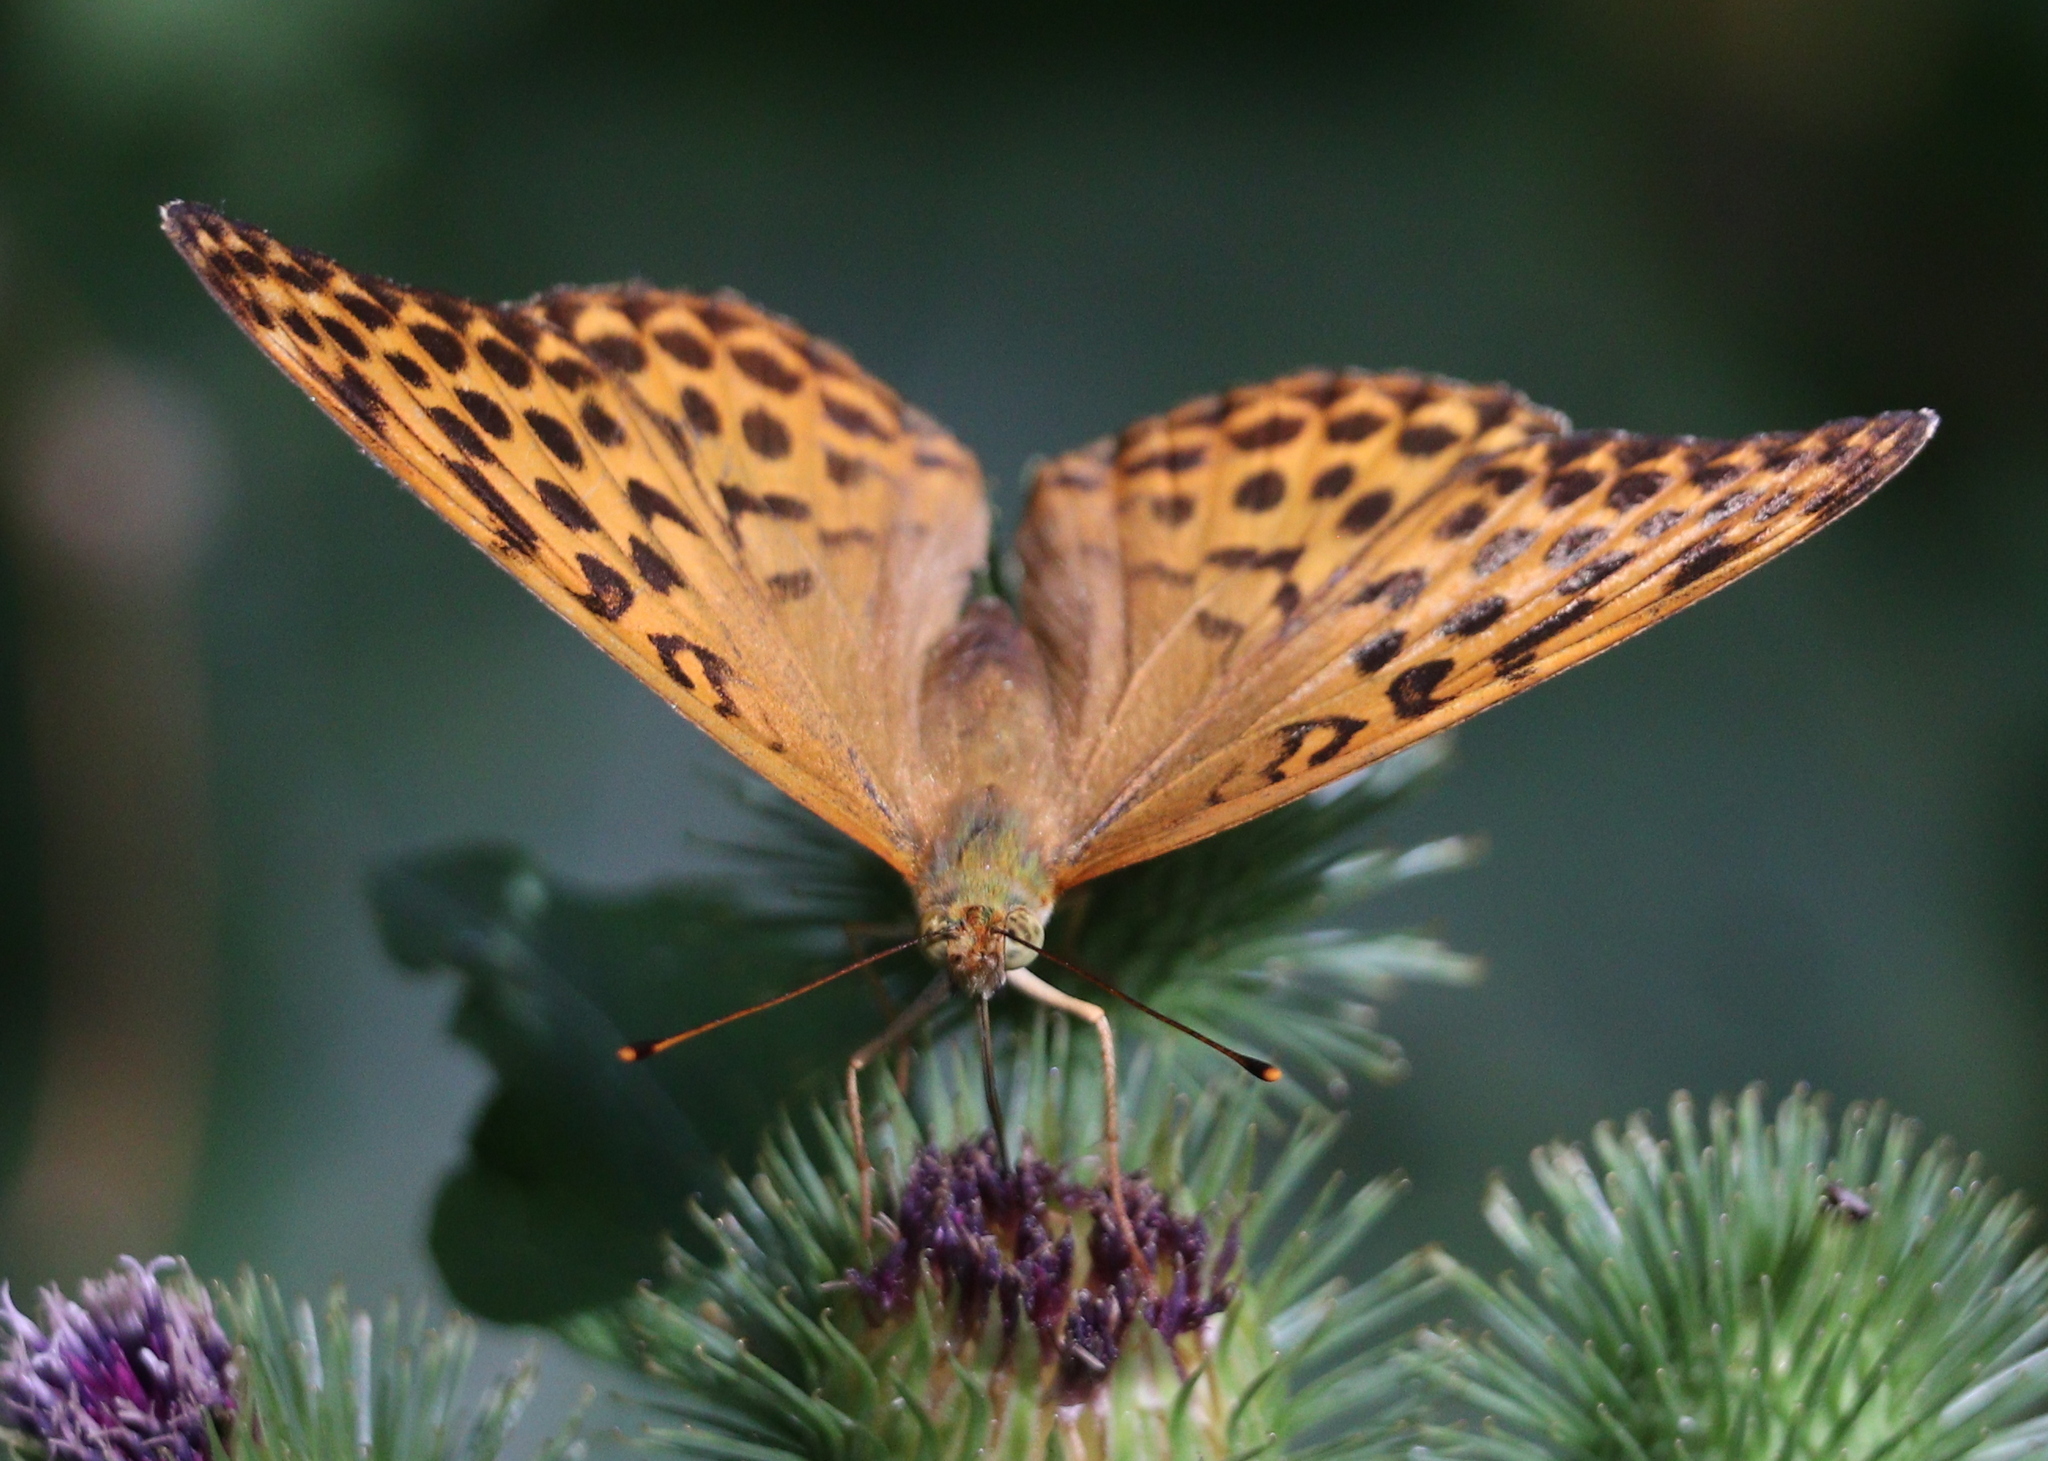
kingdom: Animalia
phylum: Arthropoda
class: Insecta
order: Lepidoptera
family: Nymphalidae
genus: Argynnis
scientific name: Argynnis paphia
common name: Silver-washed fritillary
